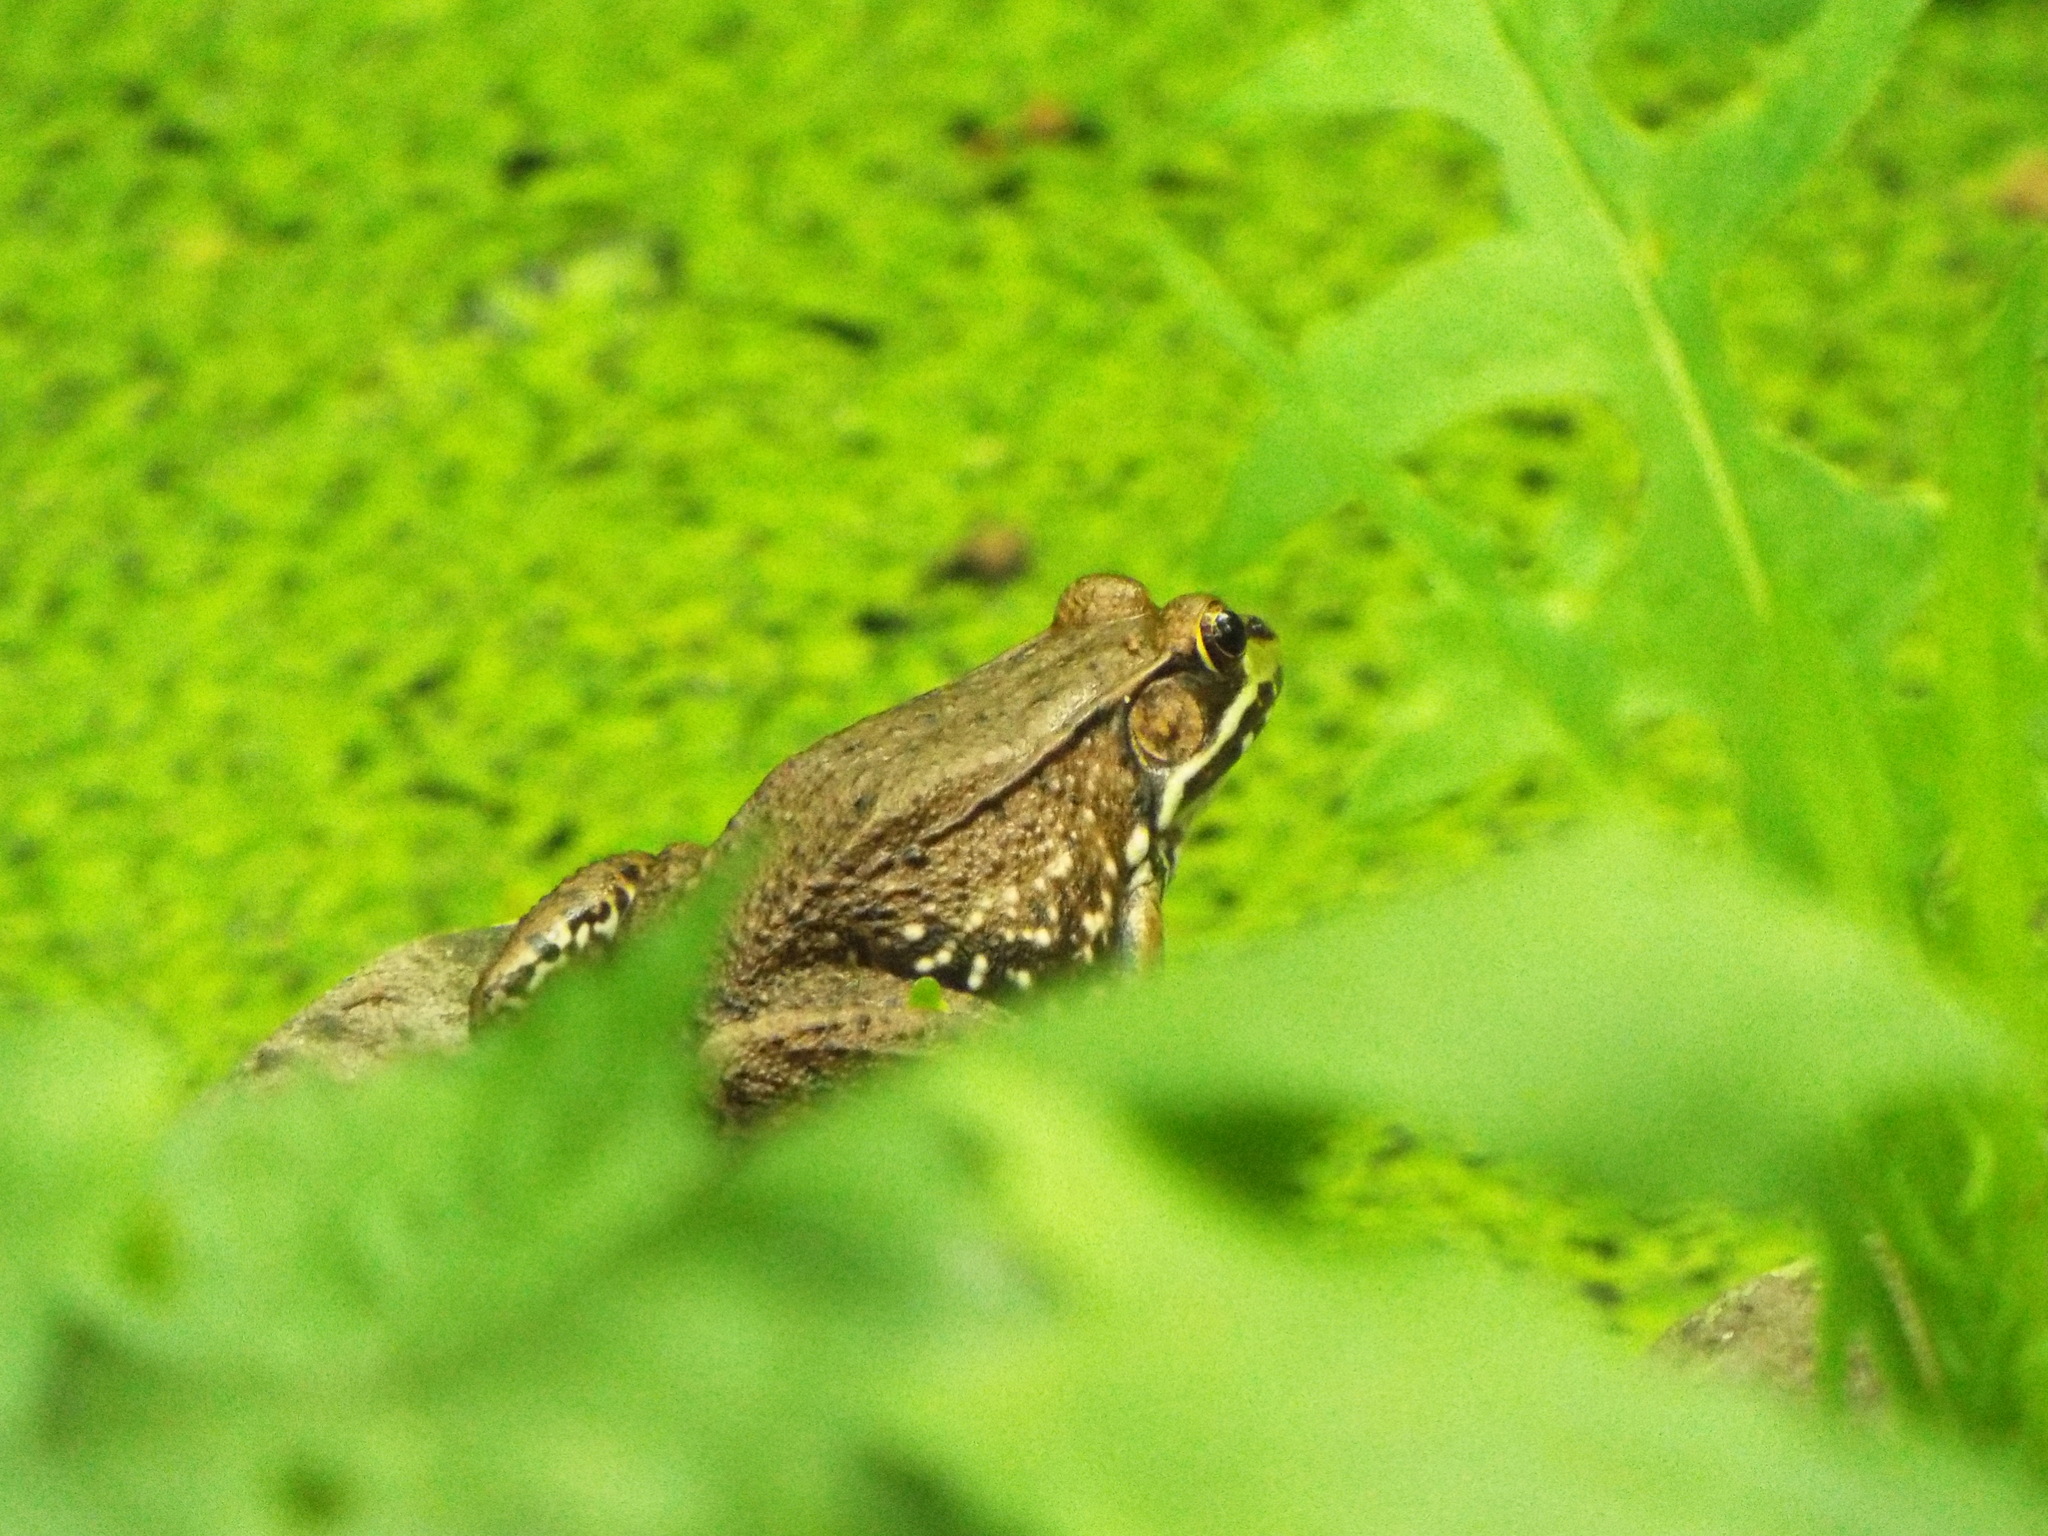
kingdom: Animalia
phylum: Chordata
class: Amphibia
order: Anura
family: Ranidae
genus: Lithobates
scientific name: Lithobates clamitans
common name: Green frog
